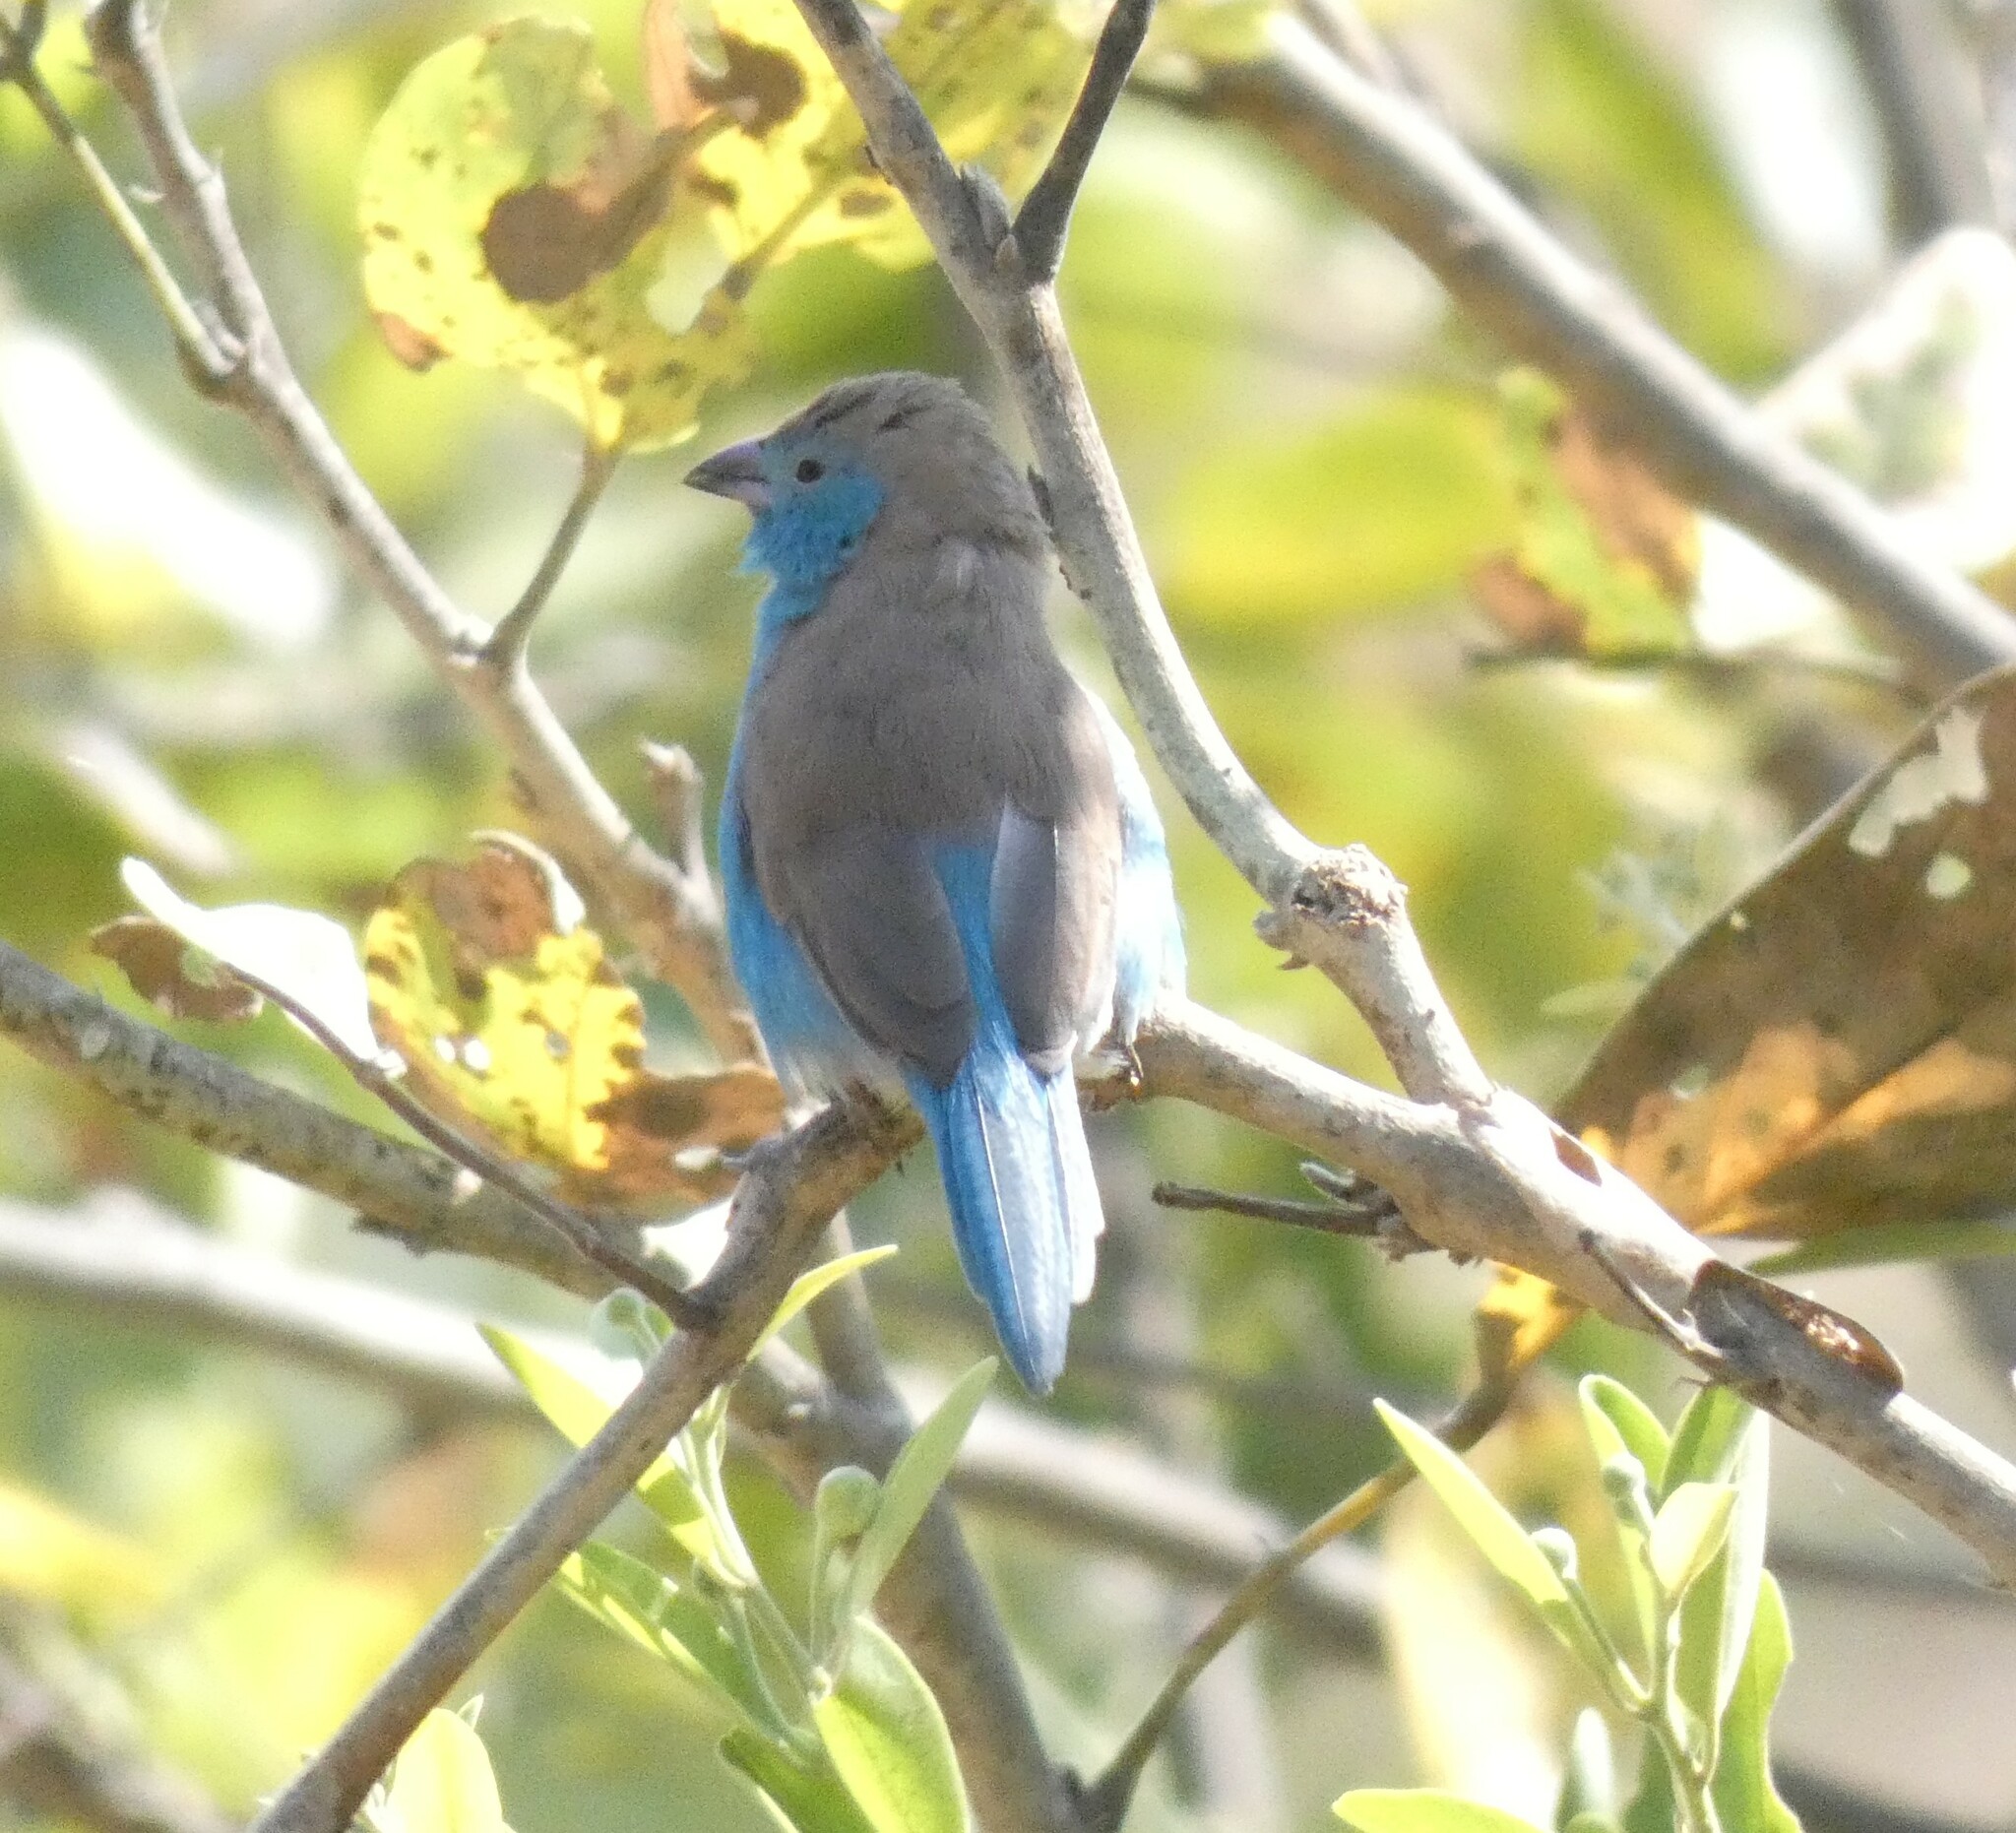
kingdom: Animalia
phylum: Chordata
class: Aves
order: Passeriformes
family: Estrildidae
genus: Uraeginthus
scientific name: Uraeginthus angolensis
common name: Blue waxbill
